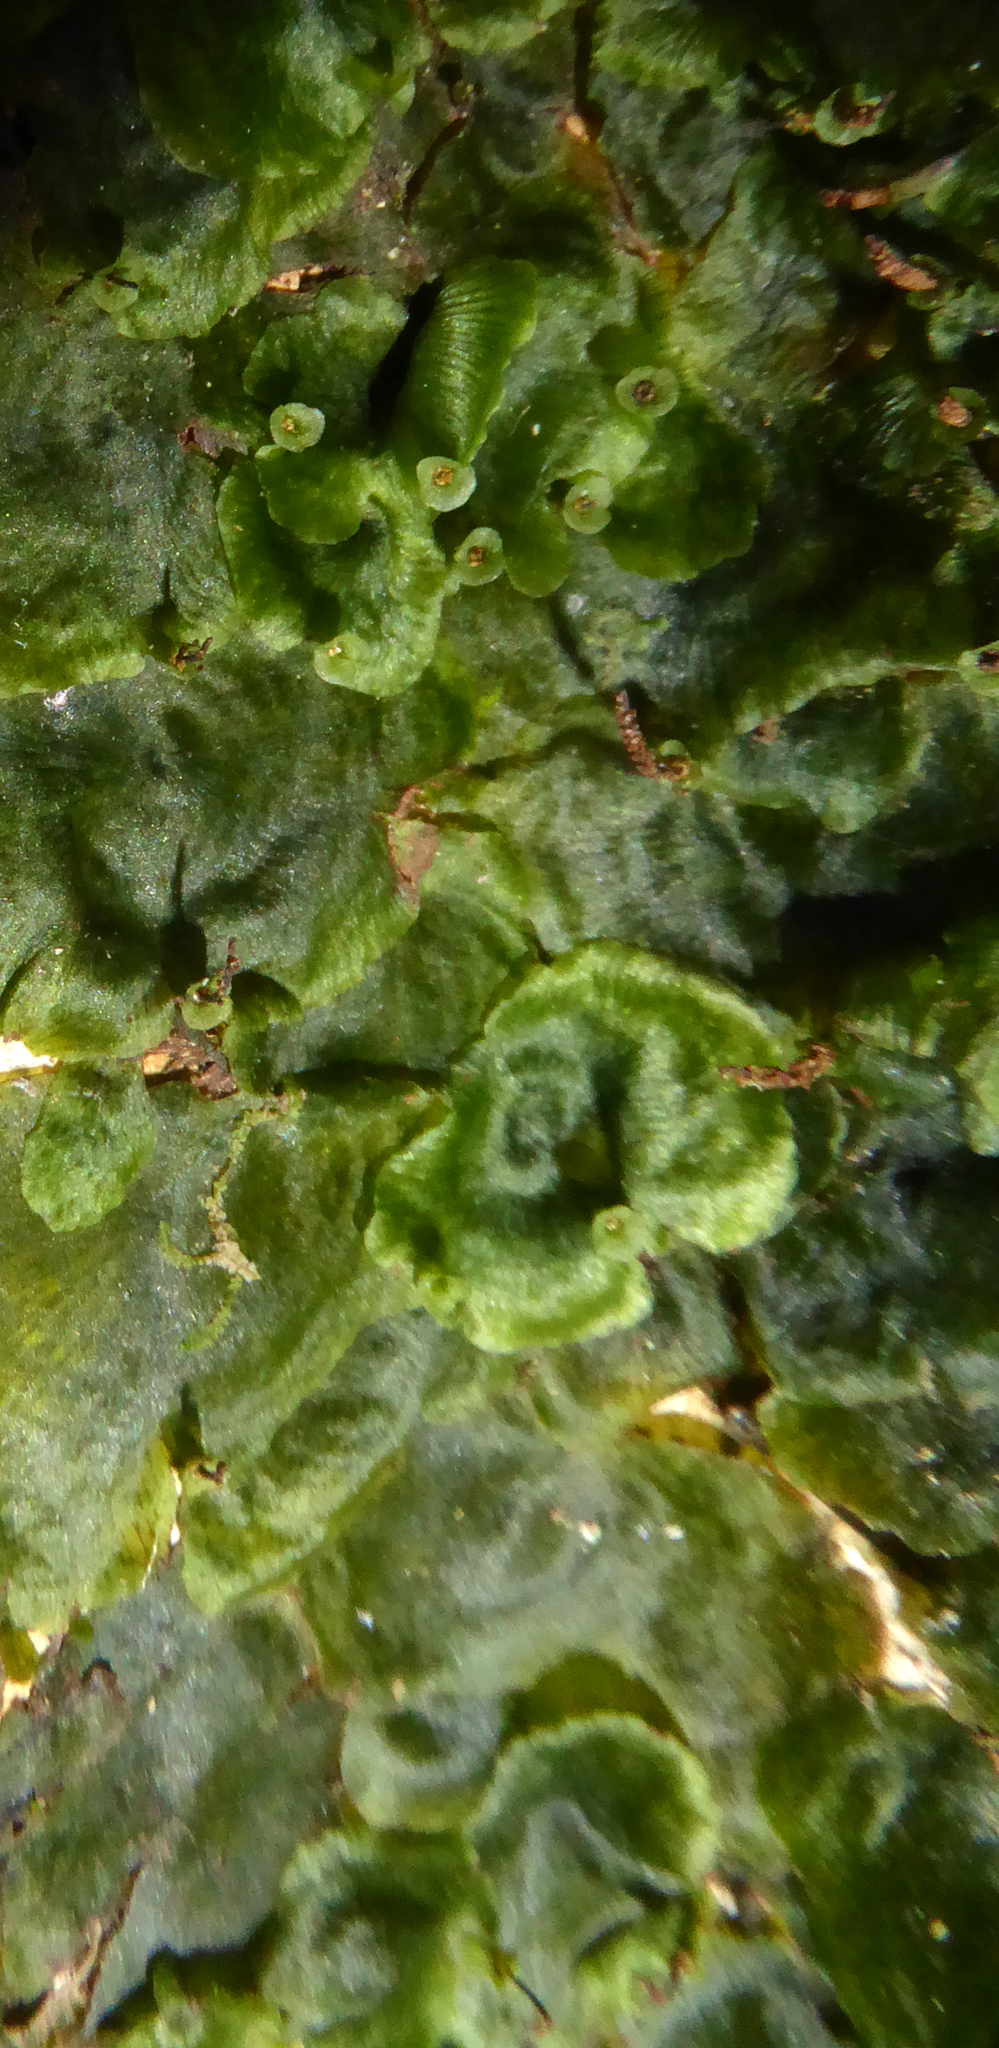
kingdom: Plantae
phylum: Tracheophyta
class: Polypodiopsida
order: Hymenophyllales
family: Hymenophyllaceae
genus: Didymoglossum
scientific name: Didymoglossum tahitense
